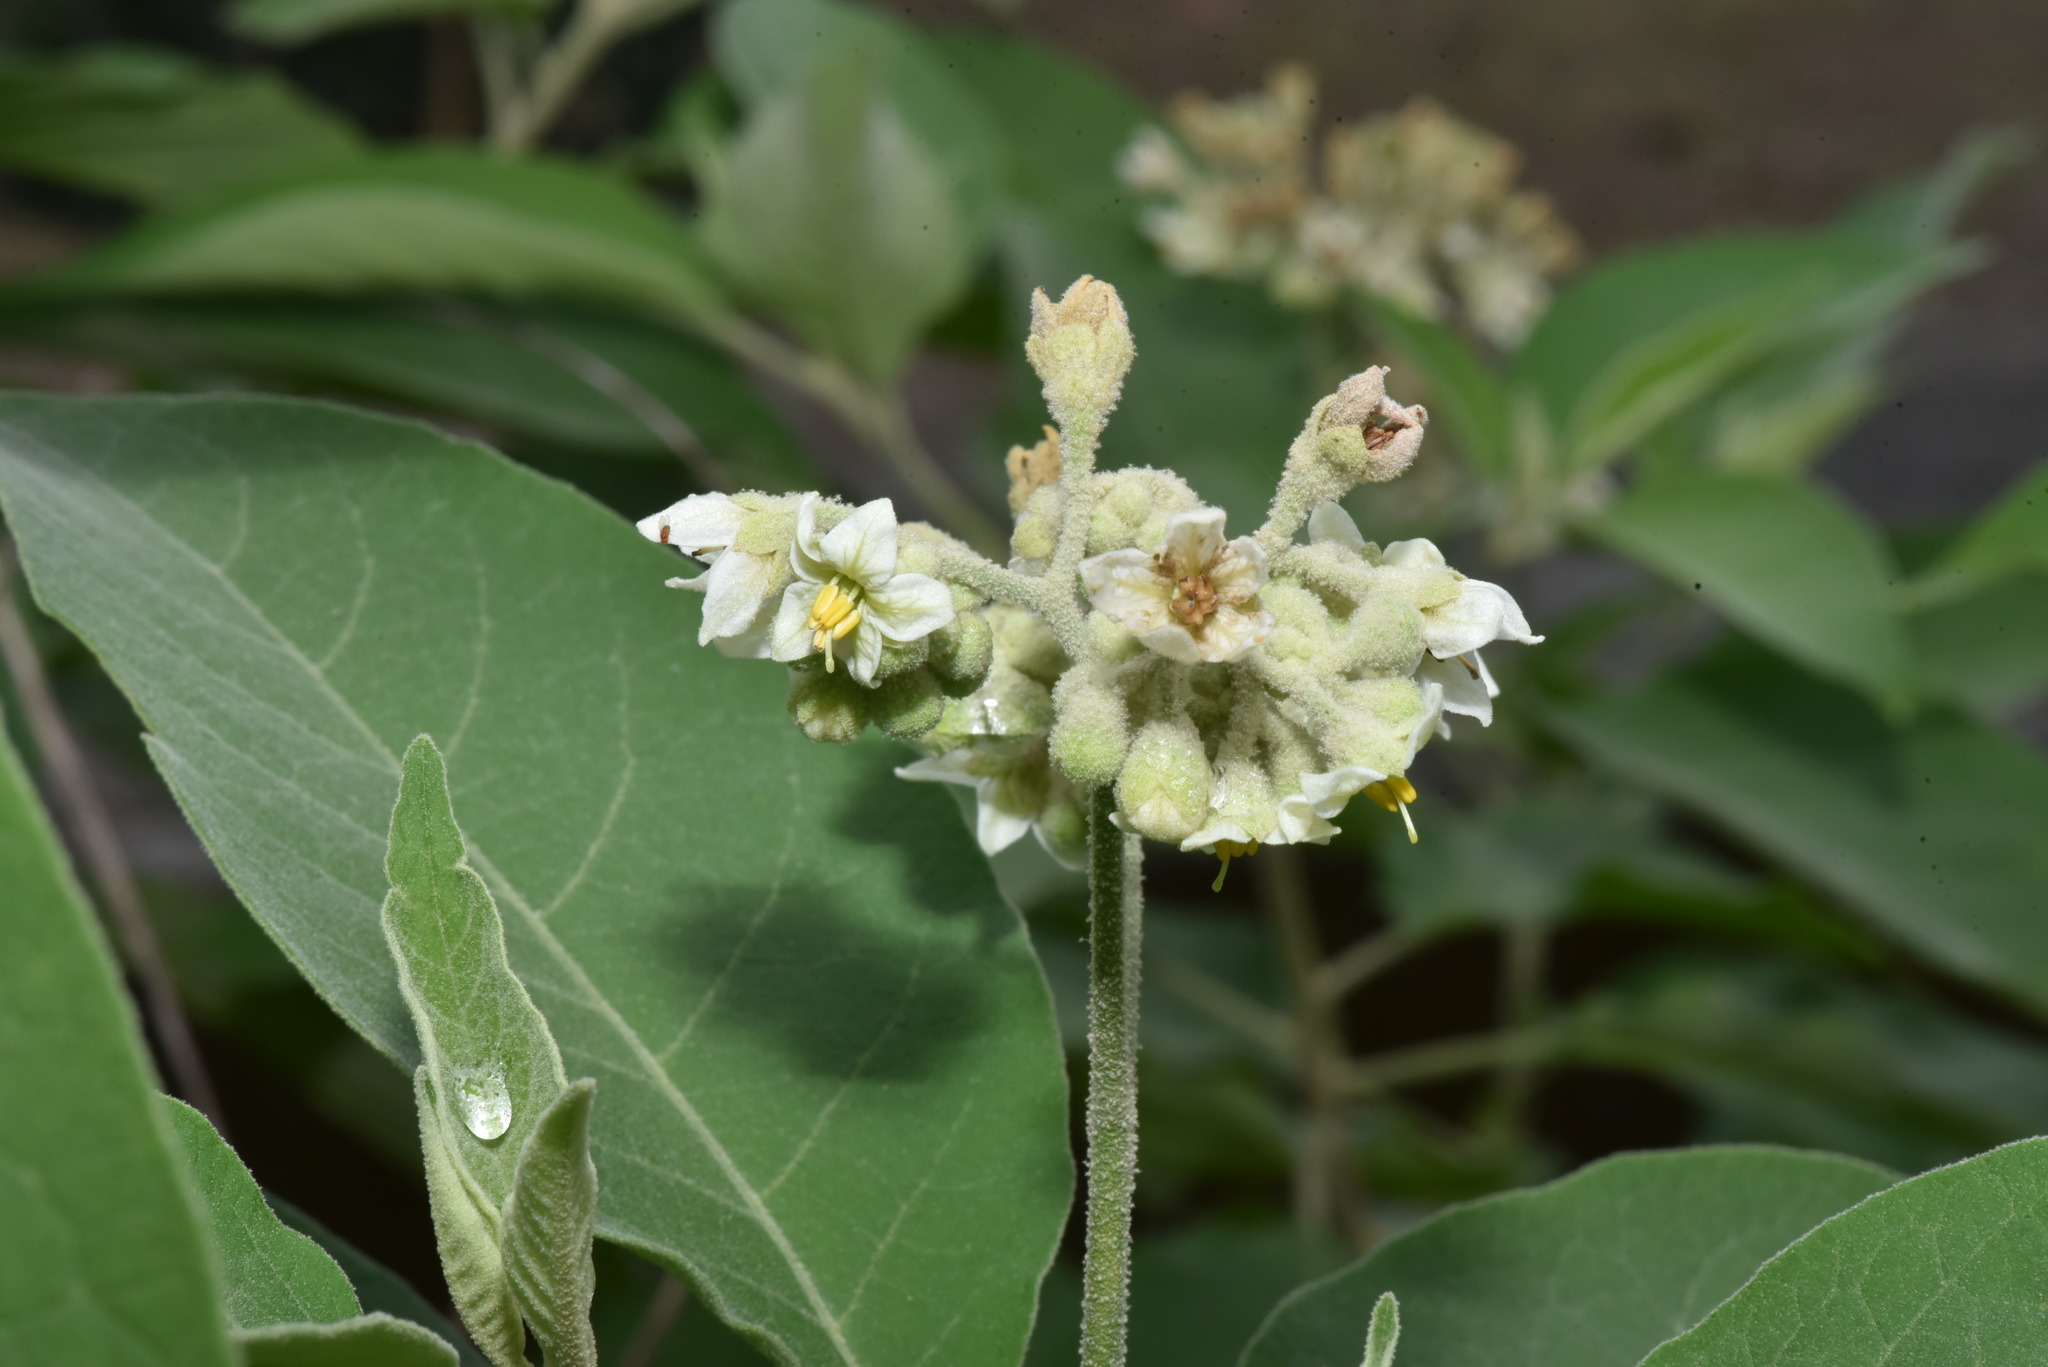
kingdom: Plantae
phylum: Tracheophyta
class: Magnoliopsida
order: Solanales
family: Solanaceae
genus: Solanum
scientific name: Solanum erianthum
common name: Tobacco-tree
